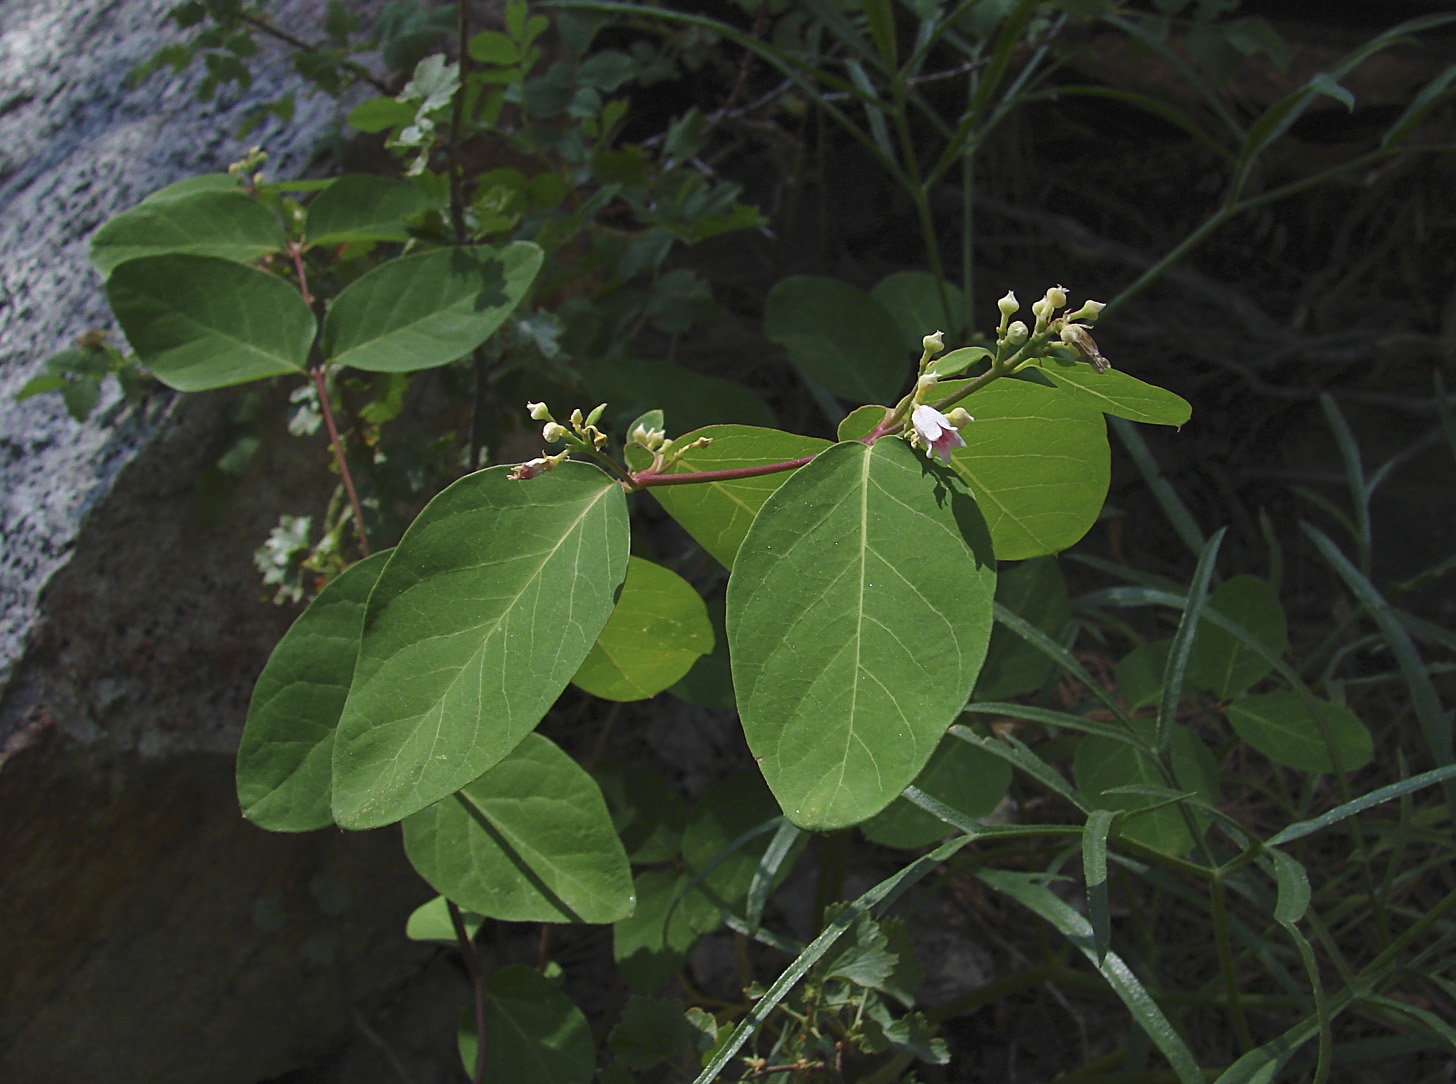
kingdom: Plantae
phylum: Tracheophyta
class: Magnoliopsida
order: Gentianales
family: Apocynaceae
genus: Apocynum
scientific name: Apocynum androsaemifolium
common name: Spreading dogbane
